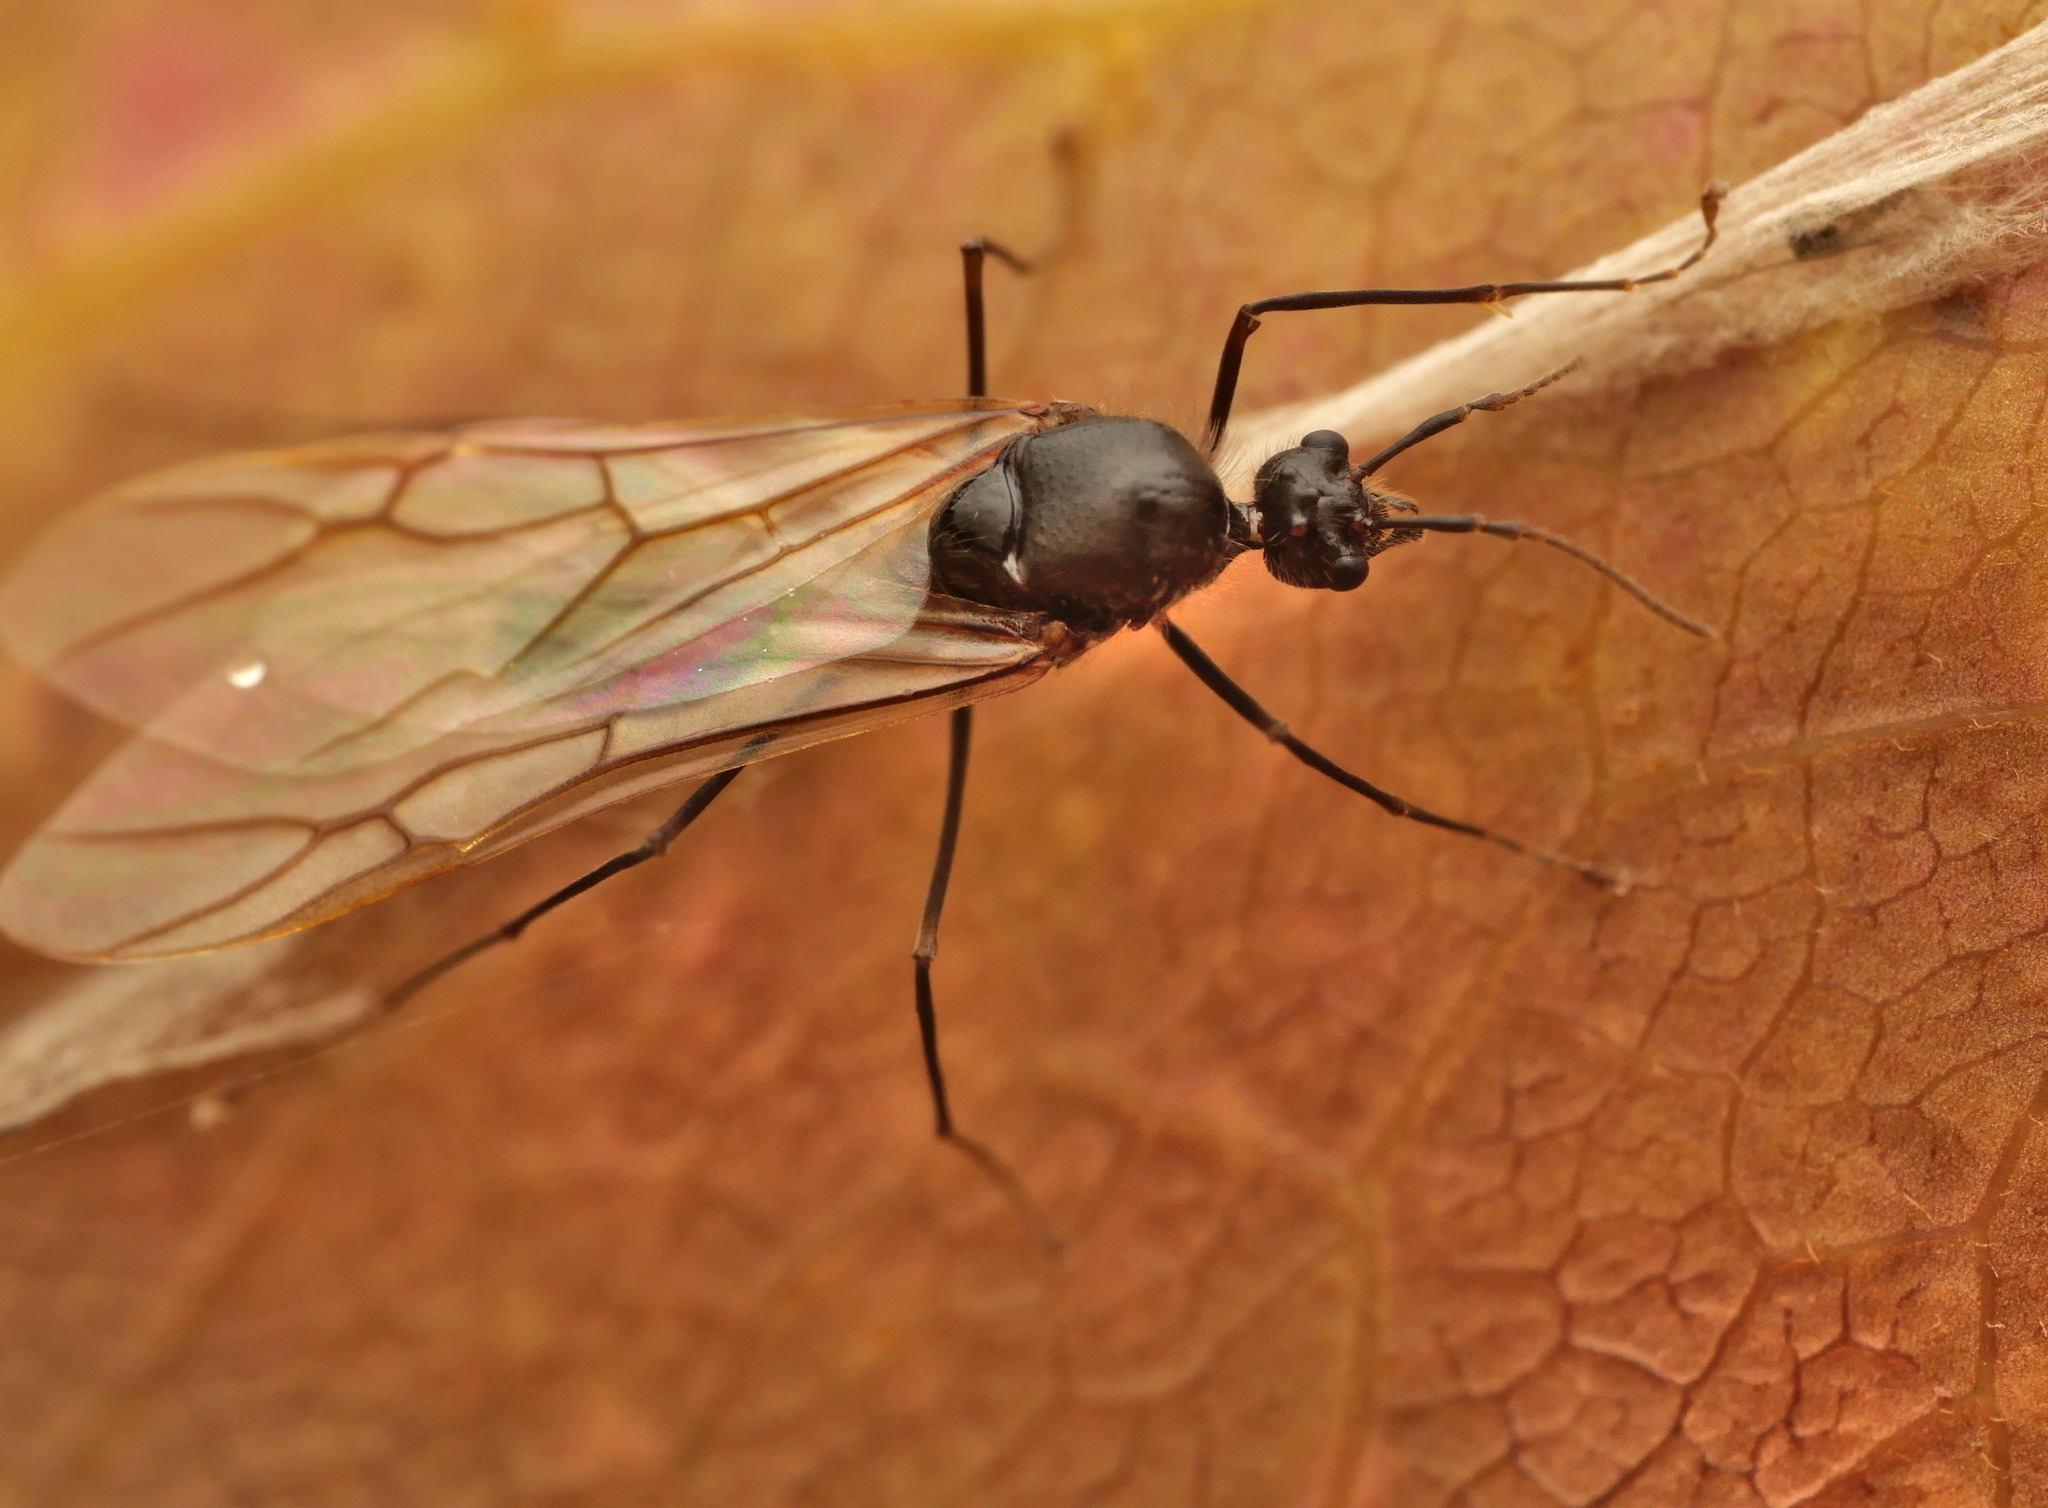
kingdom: Animalia
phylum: Arthropoda
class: Insecta
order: Hymenoptera
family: Formicidae
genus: Oecophylla
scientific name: Oecophylla smaragdina
